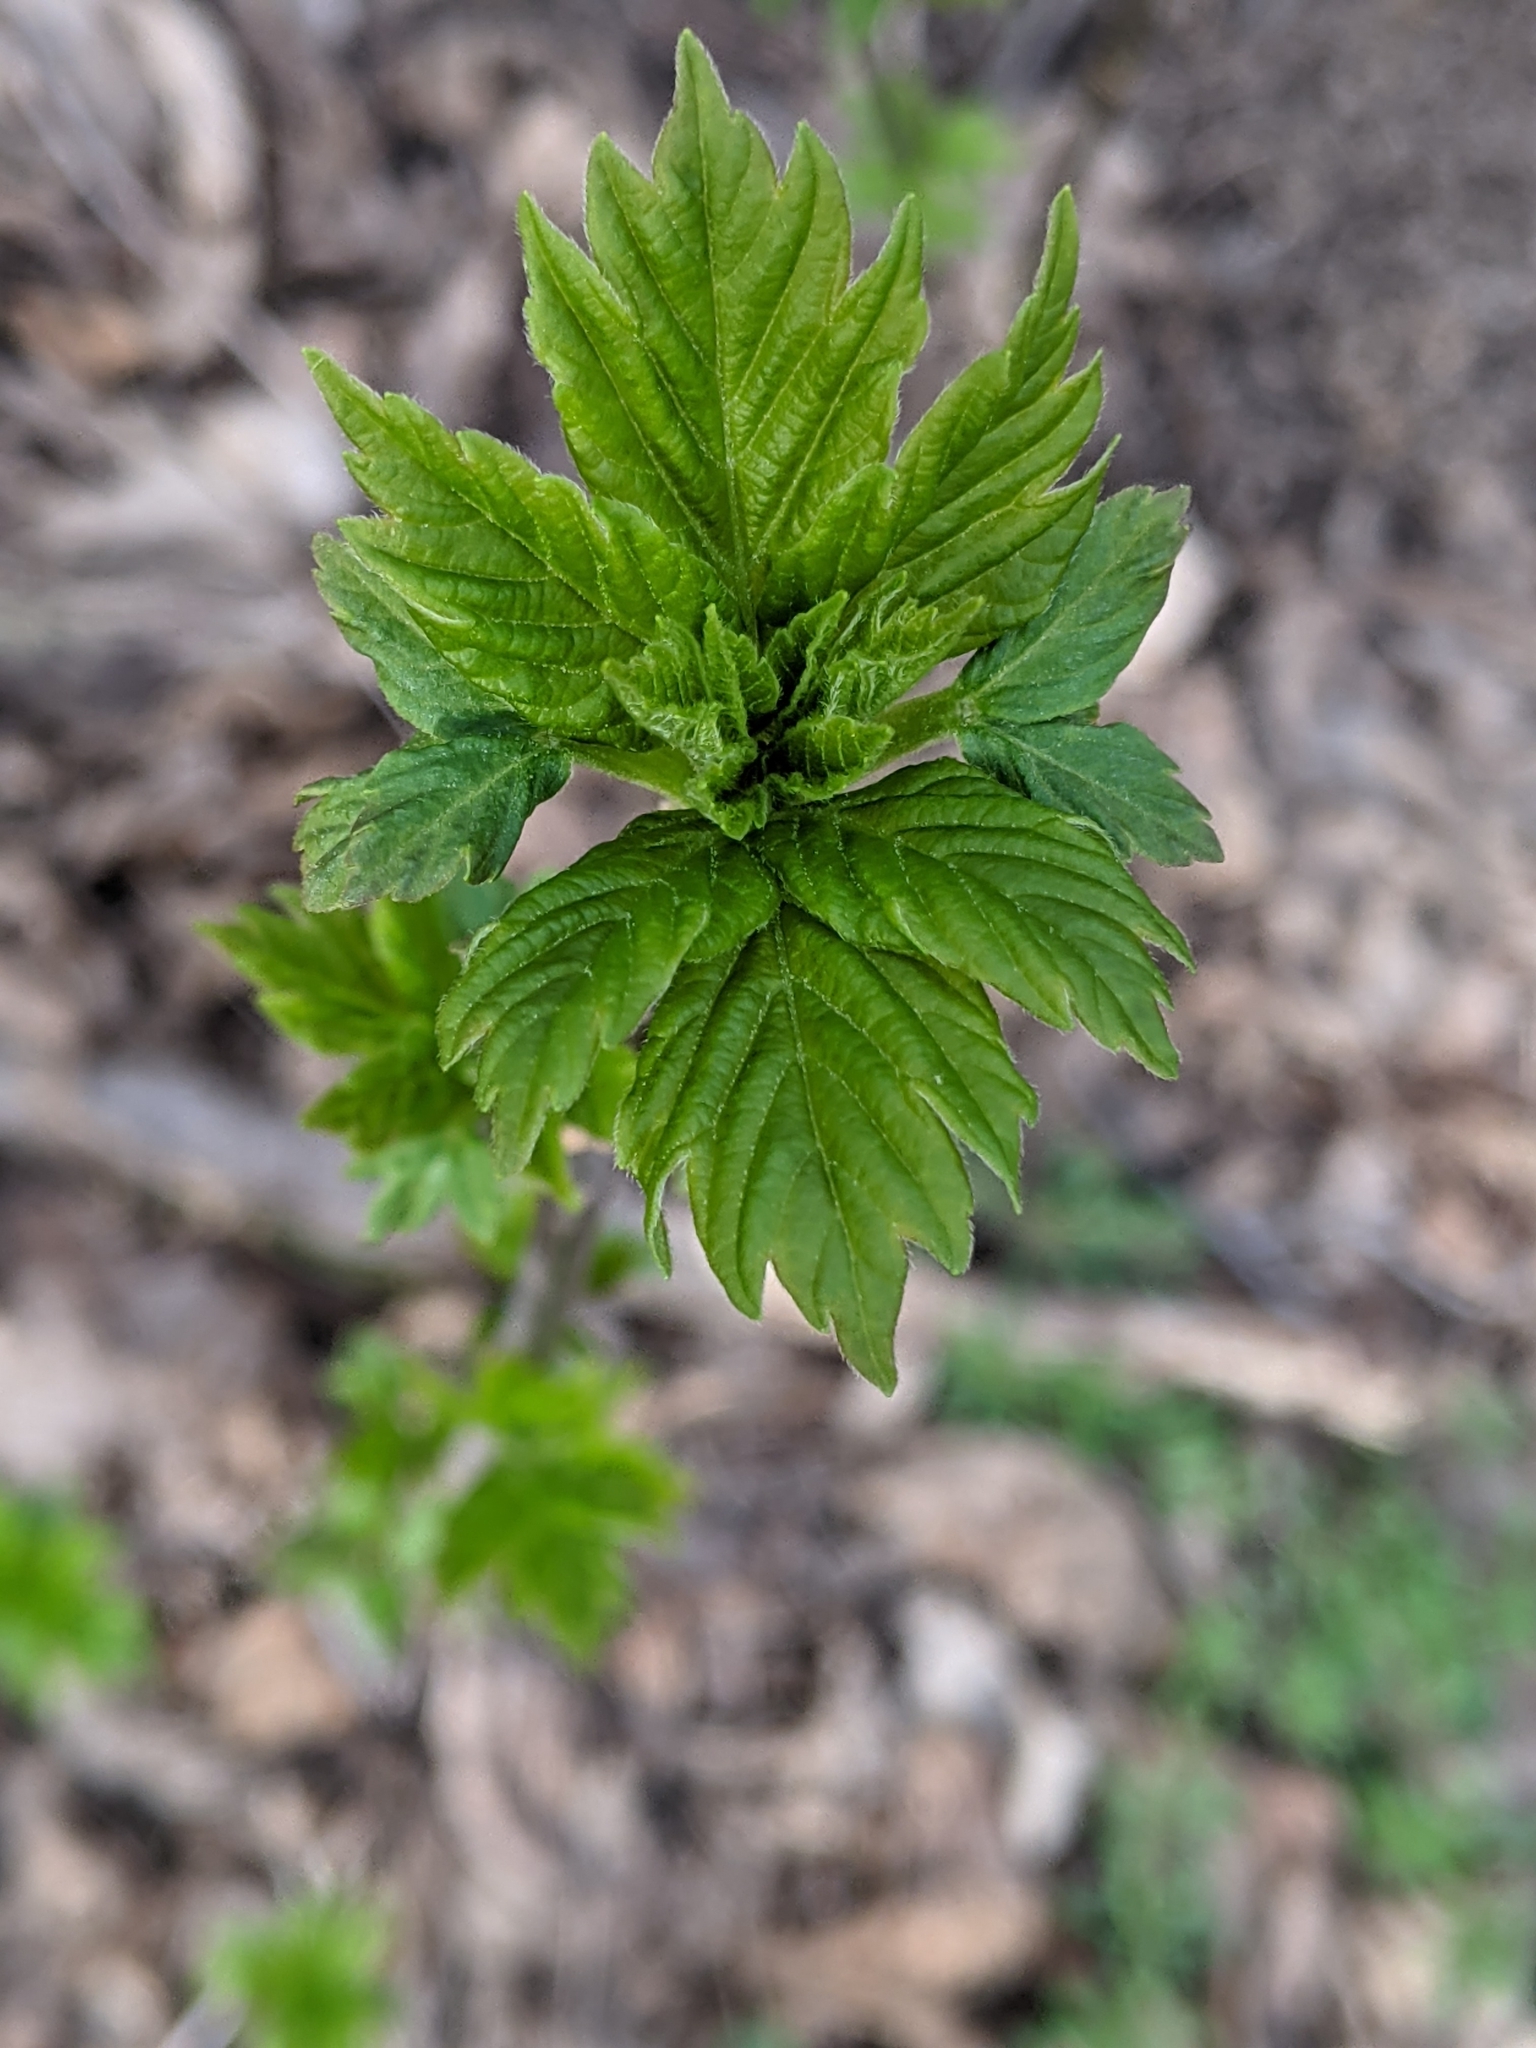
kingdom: Plantae
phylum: Tracheophyta
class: Magnoliopsida
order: Sapindales
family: Sapindaceae
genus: Acer
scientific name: Acer negundo
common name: Ashleaf maple
